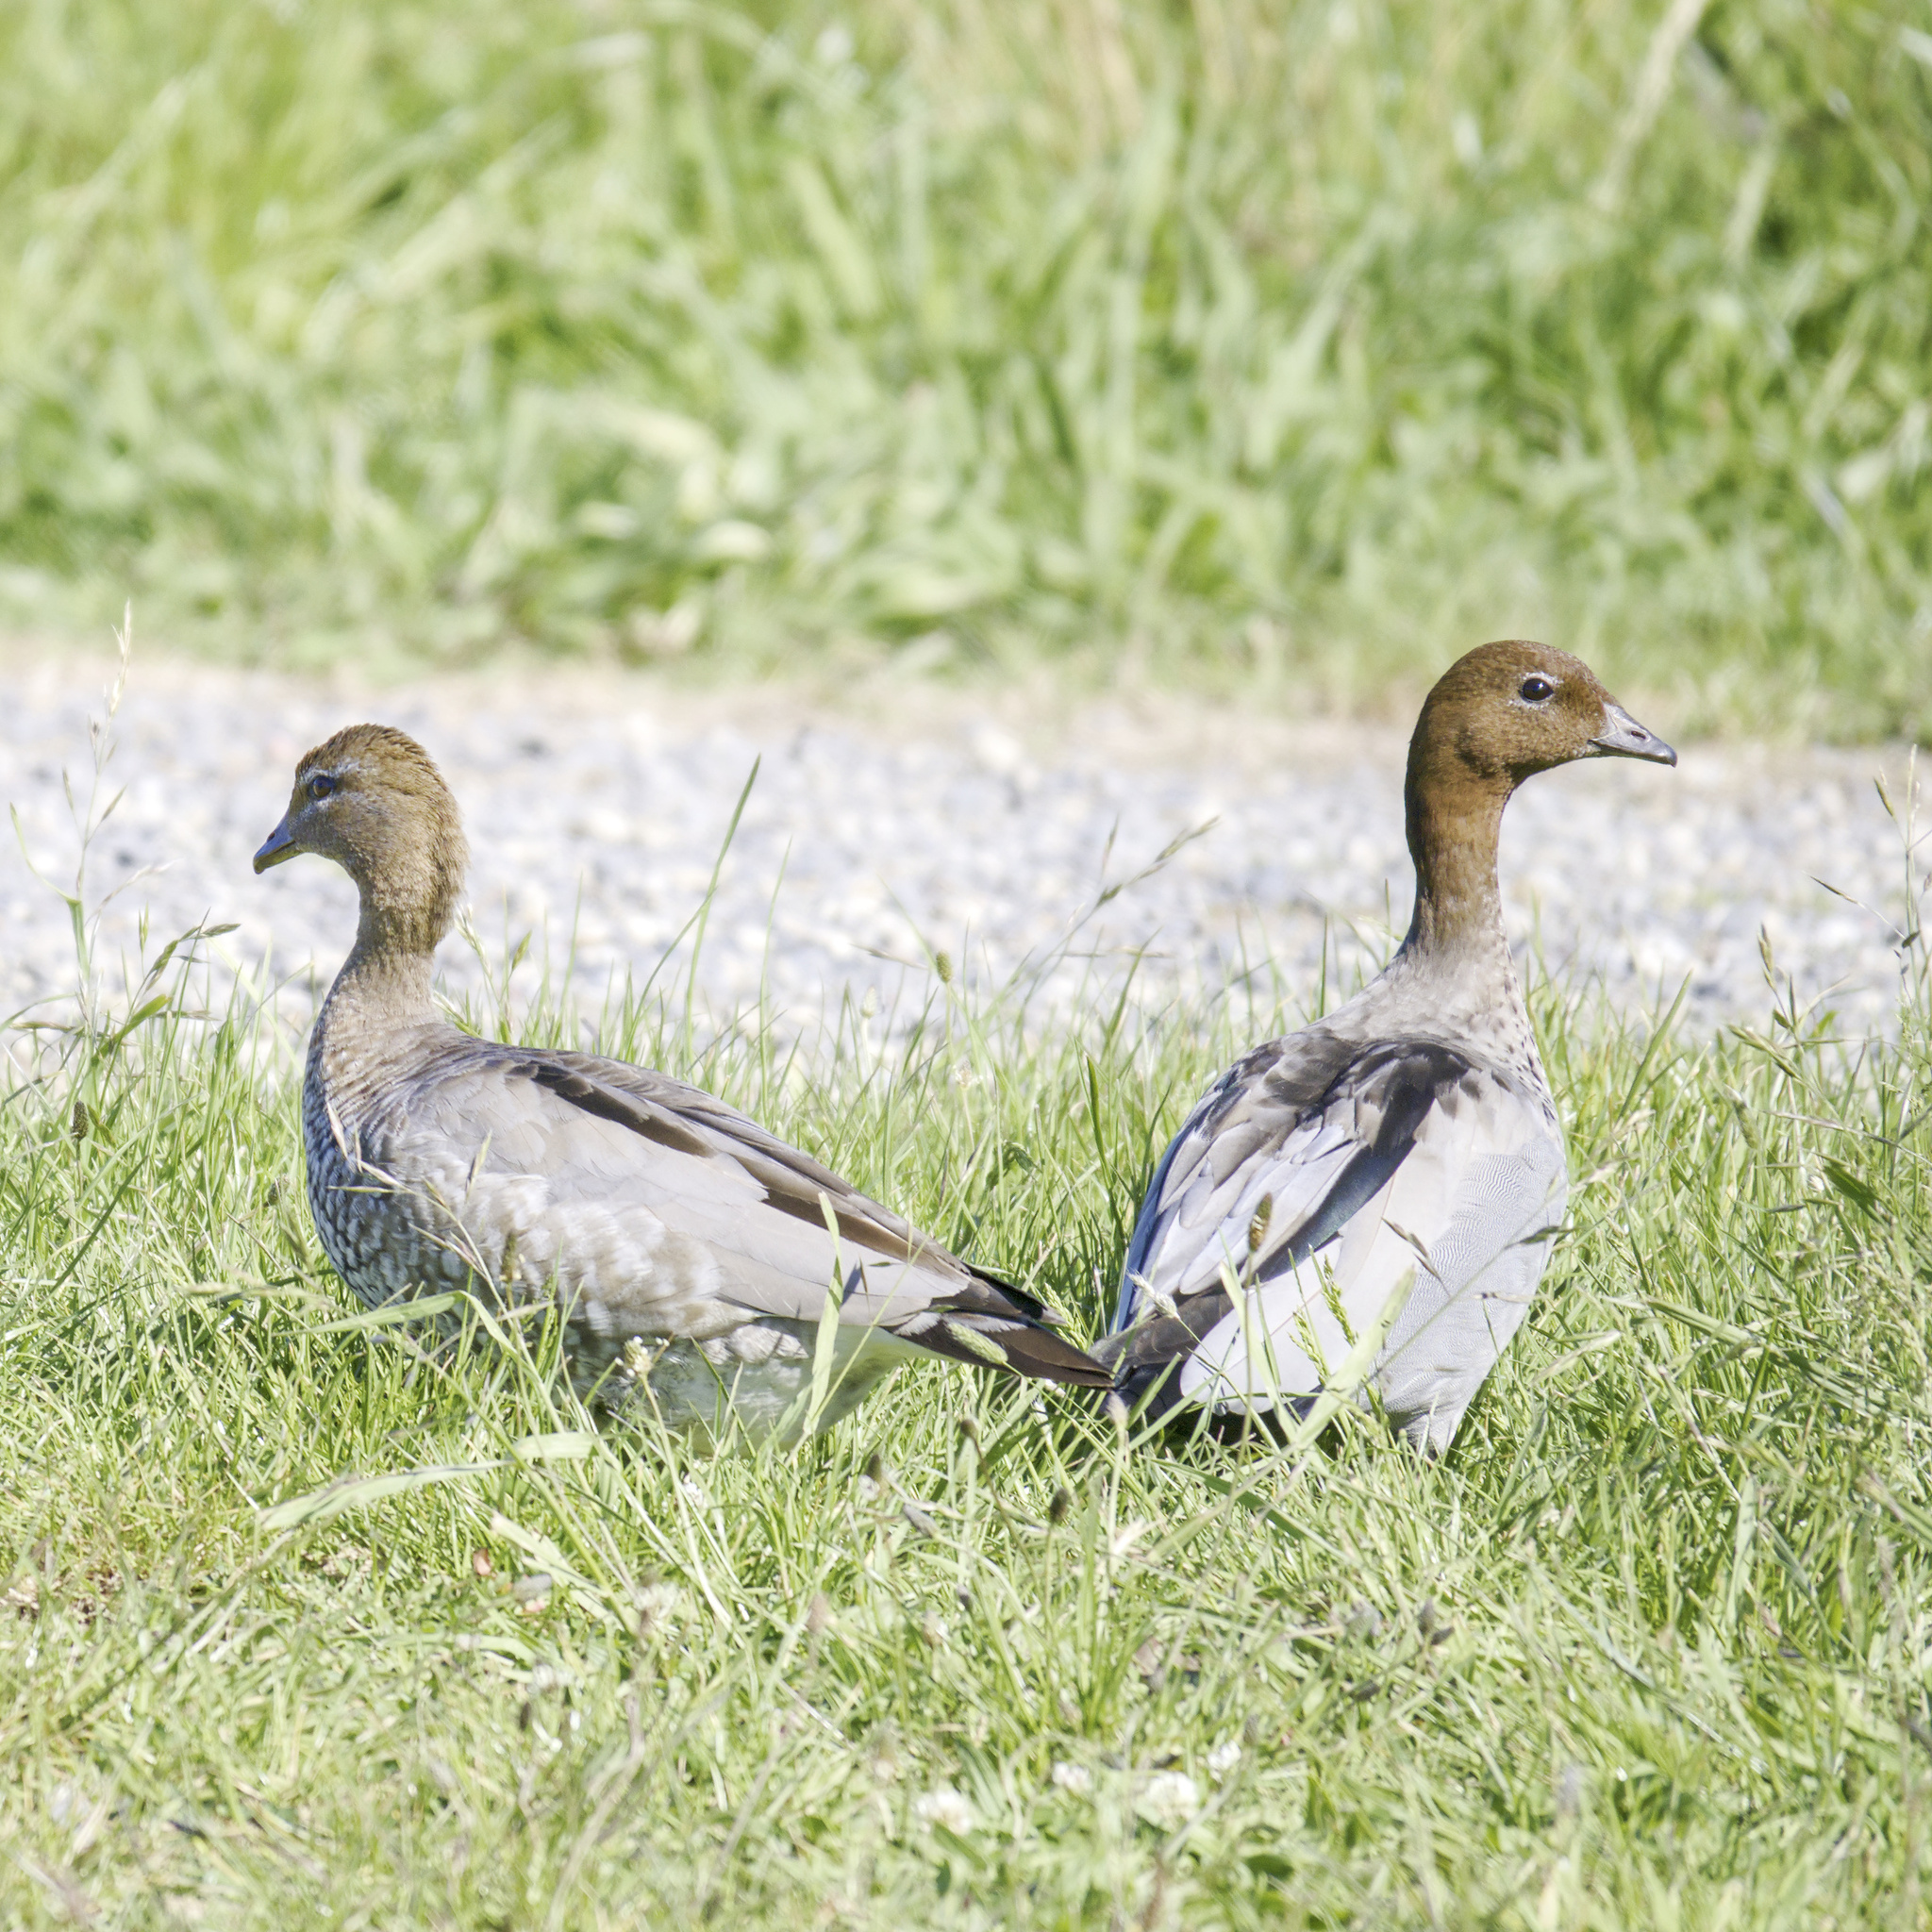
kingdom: Animalia
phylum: Chordata
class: Aves
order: Anseriformes
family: Anatidae
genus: Chenonetta
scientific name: Chenonetta jubata
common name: Maned duck
